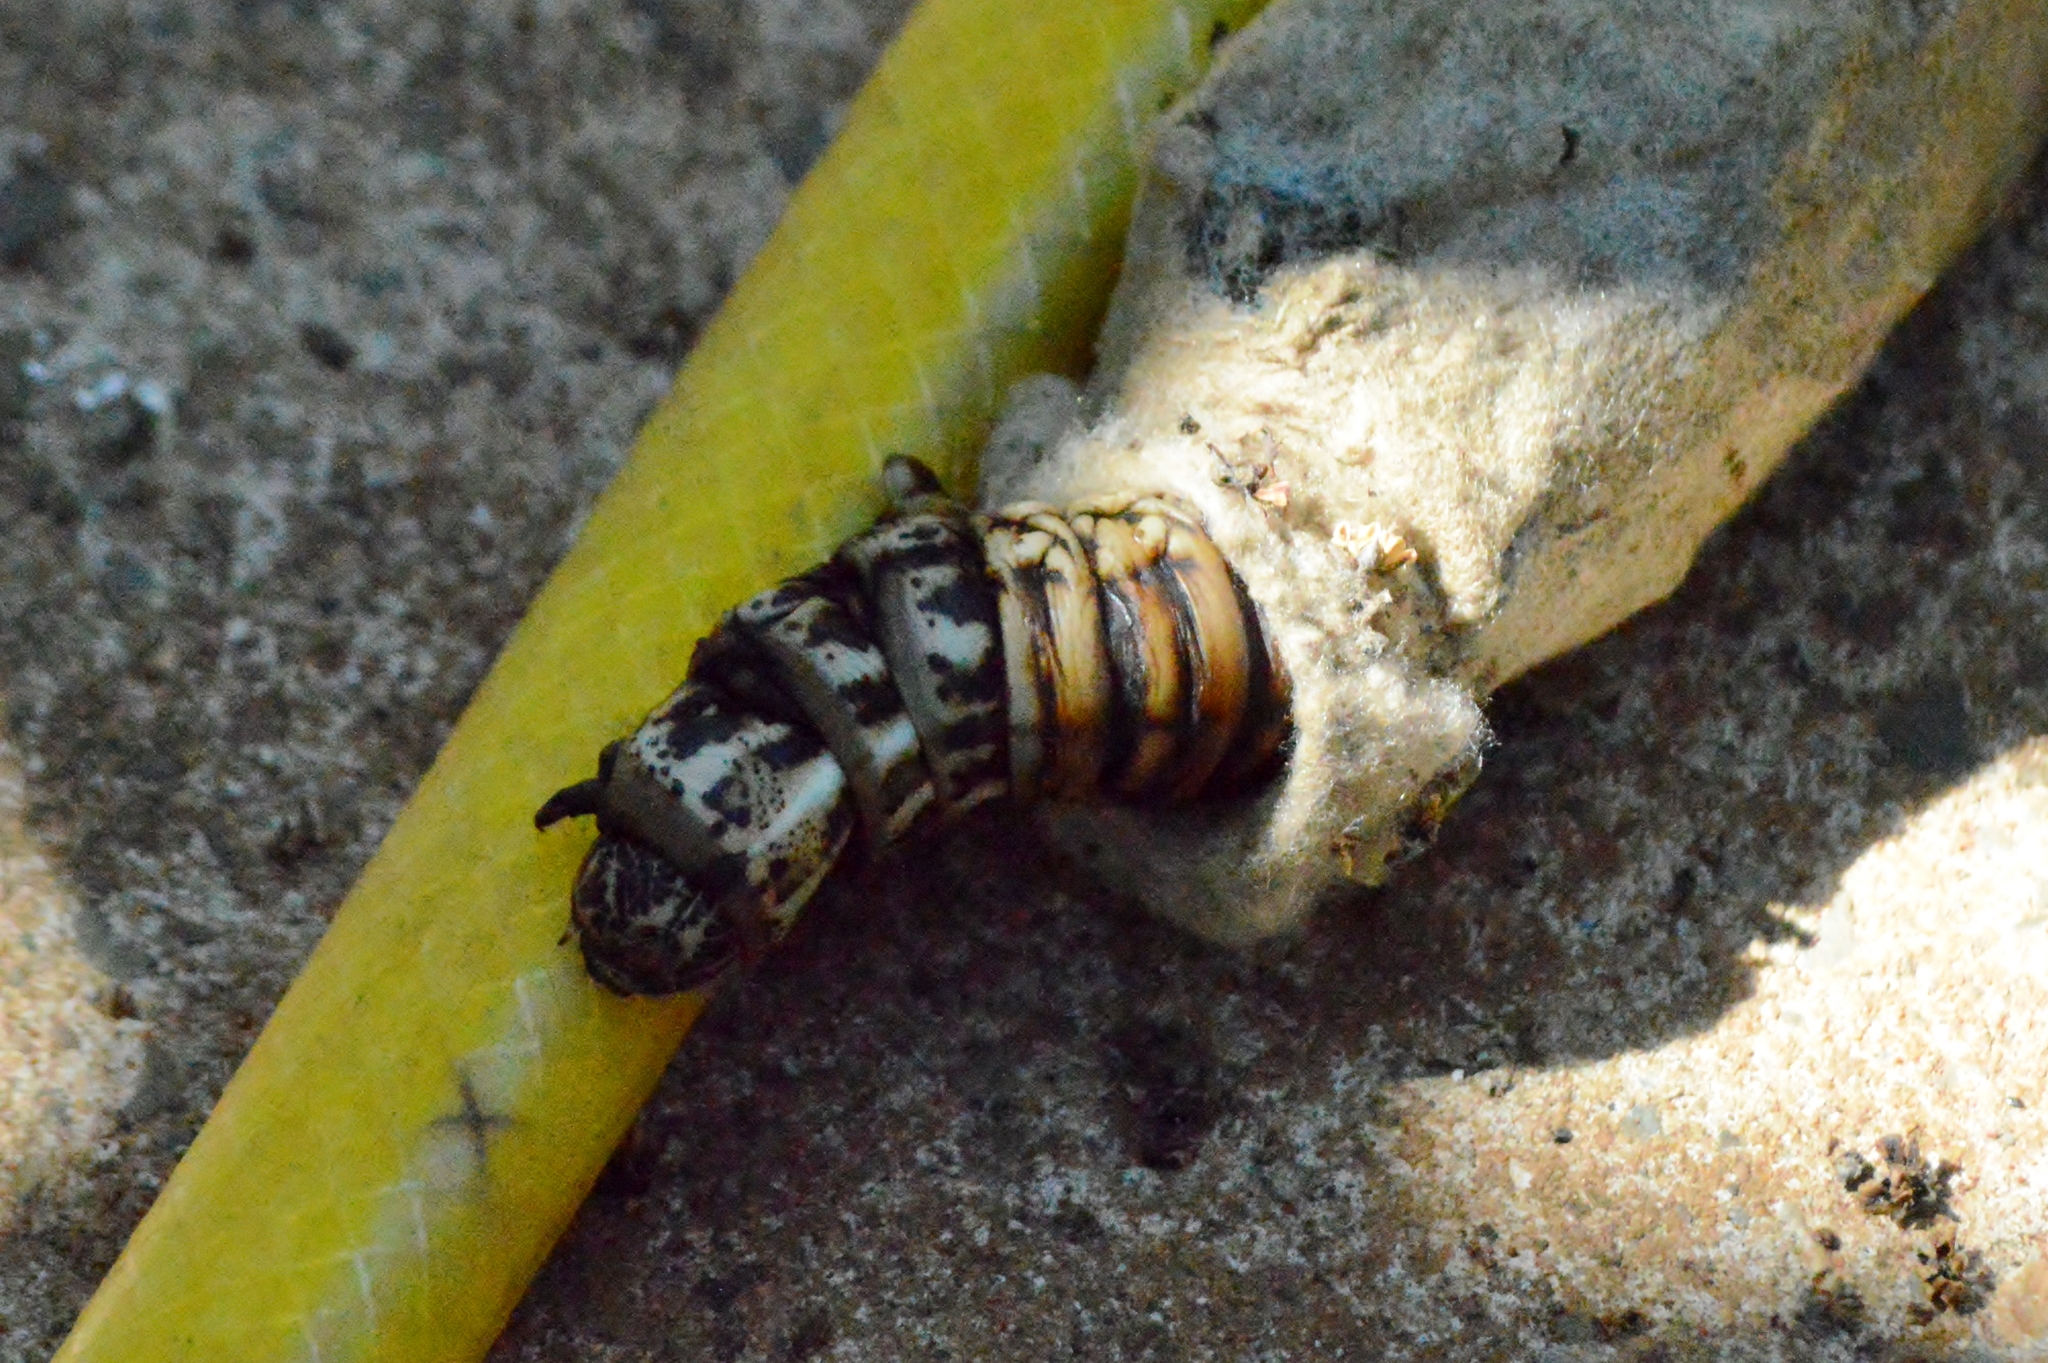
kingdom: Animalia
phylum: Arthropoda
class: Insecta
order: Lepidoptera
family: Psychidae
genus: Oiketicus
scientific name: Oiketicus kirbyi
